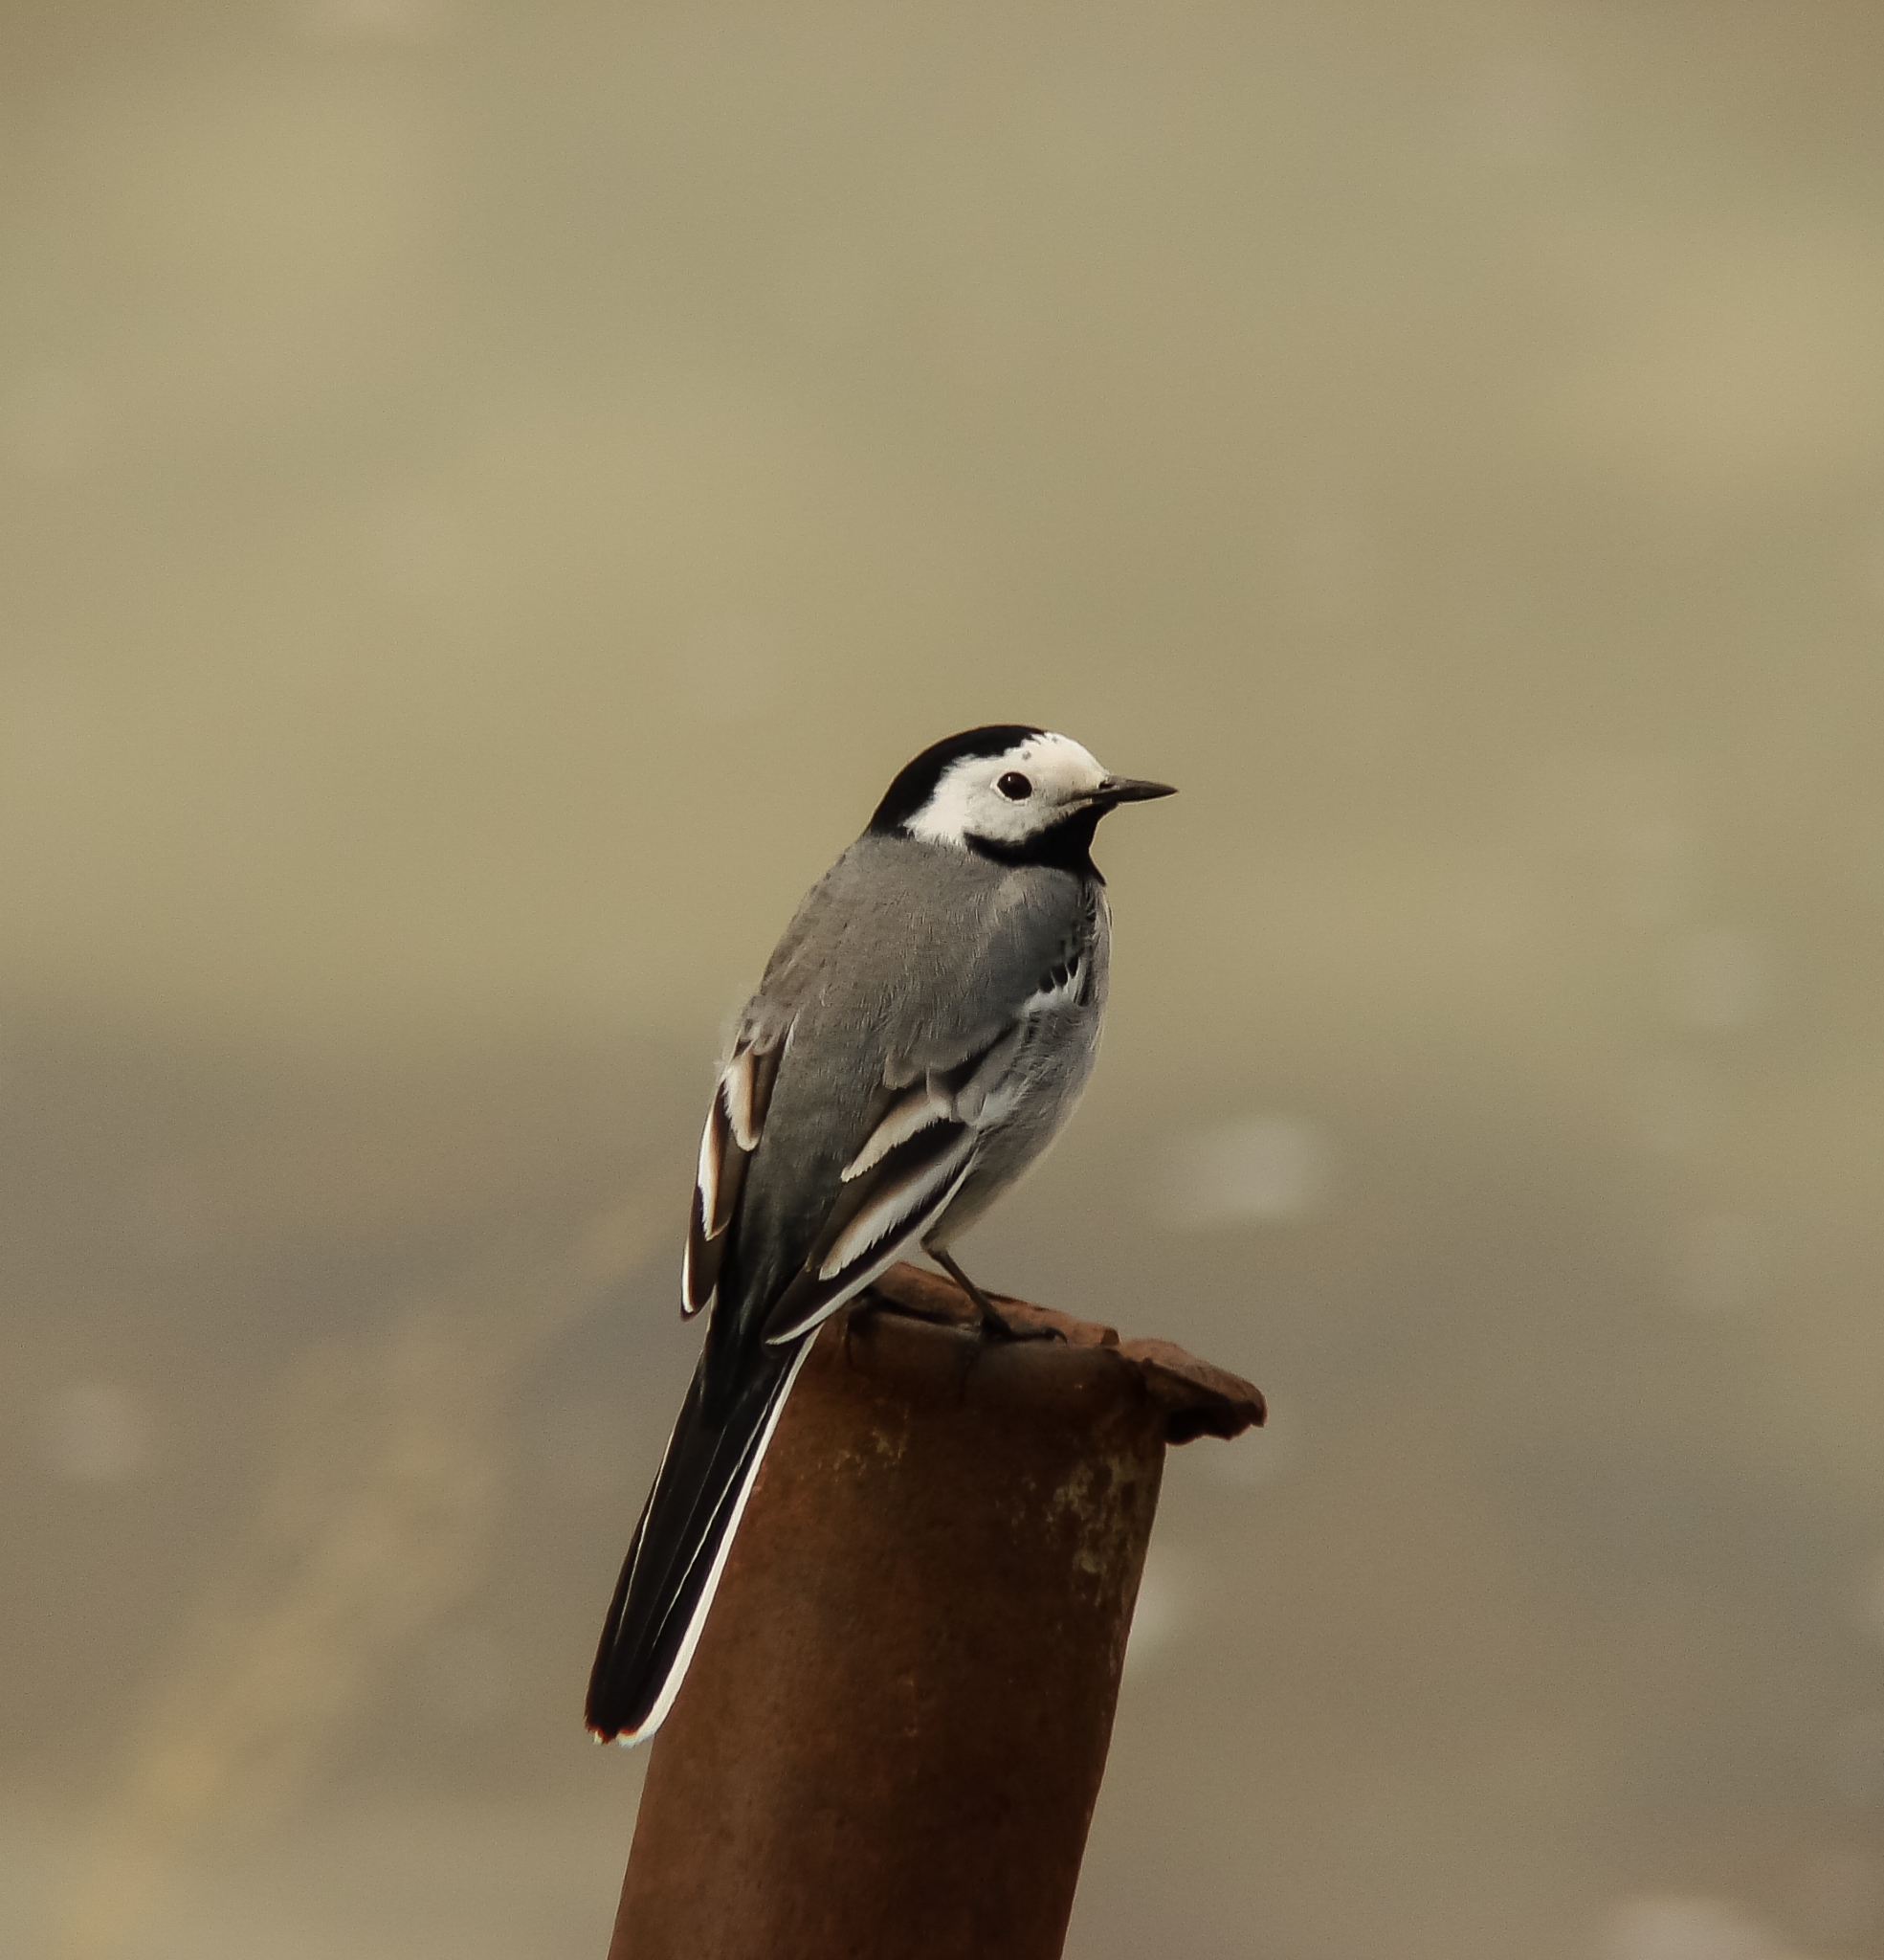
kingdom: Animalia
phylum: Chordata
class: Aves
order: Passeriformes
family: Motacillidae
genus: Motacilla
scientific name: Motacilla alba
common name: White wagtail
